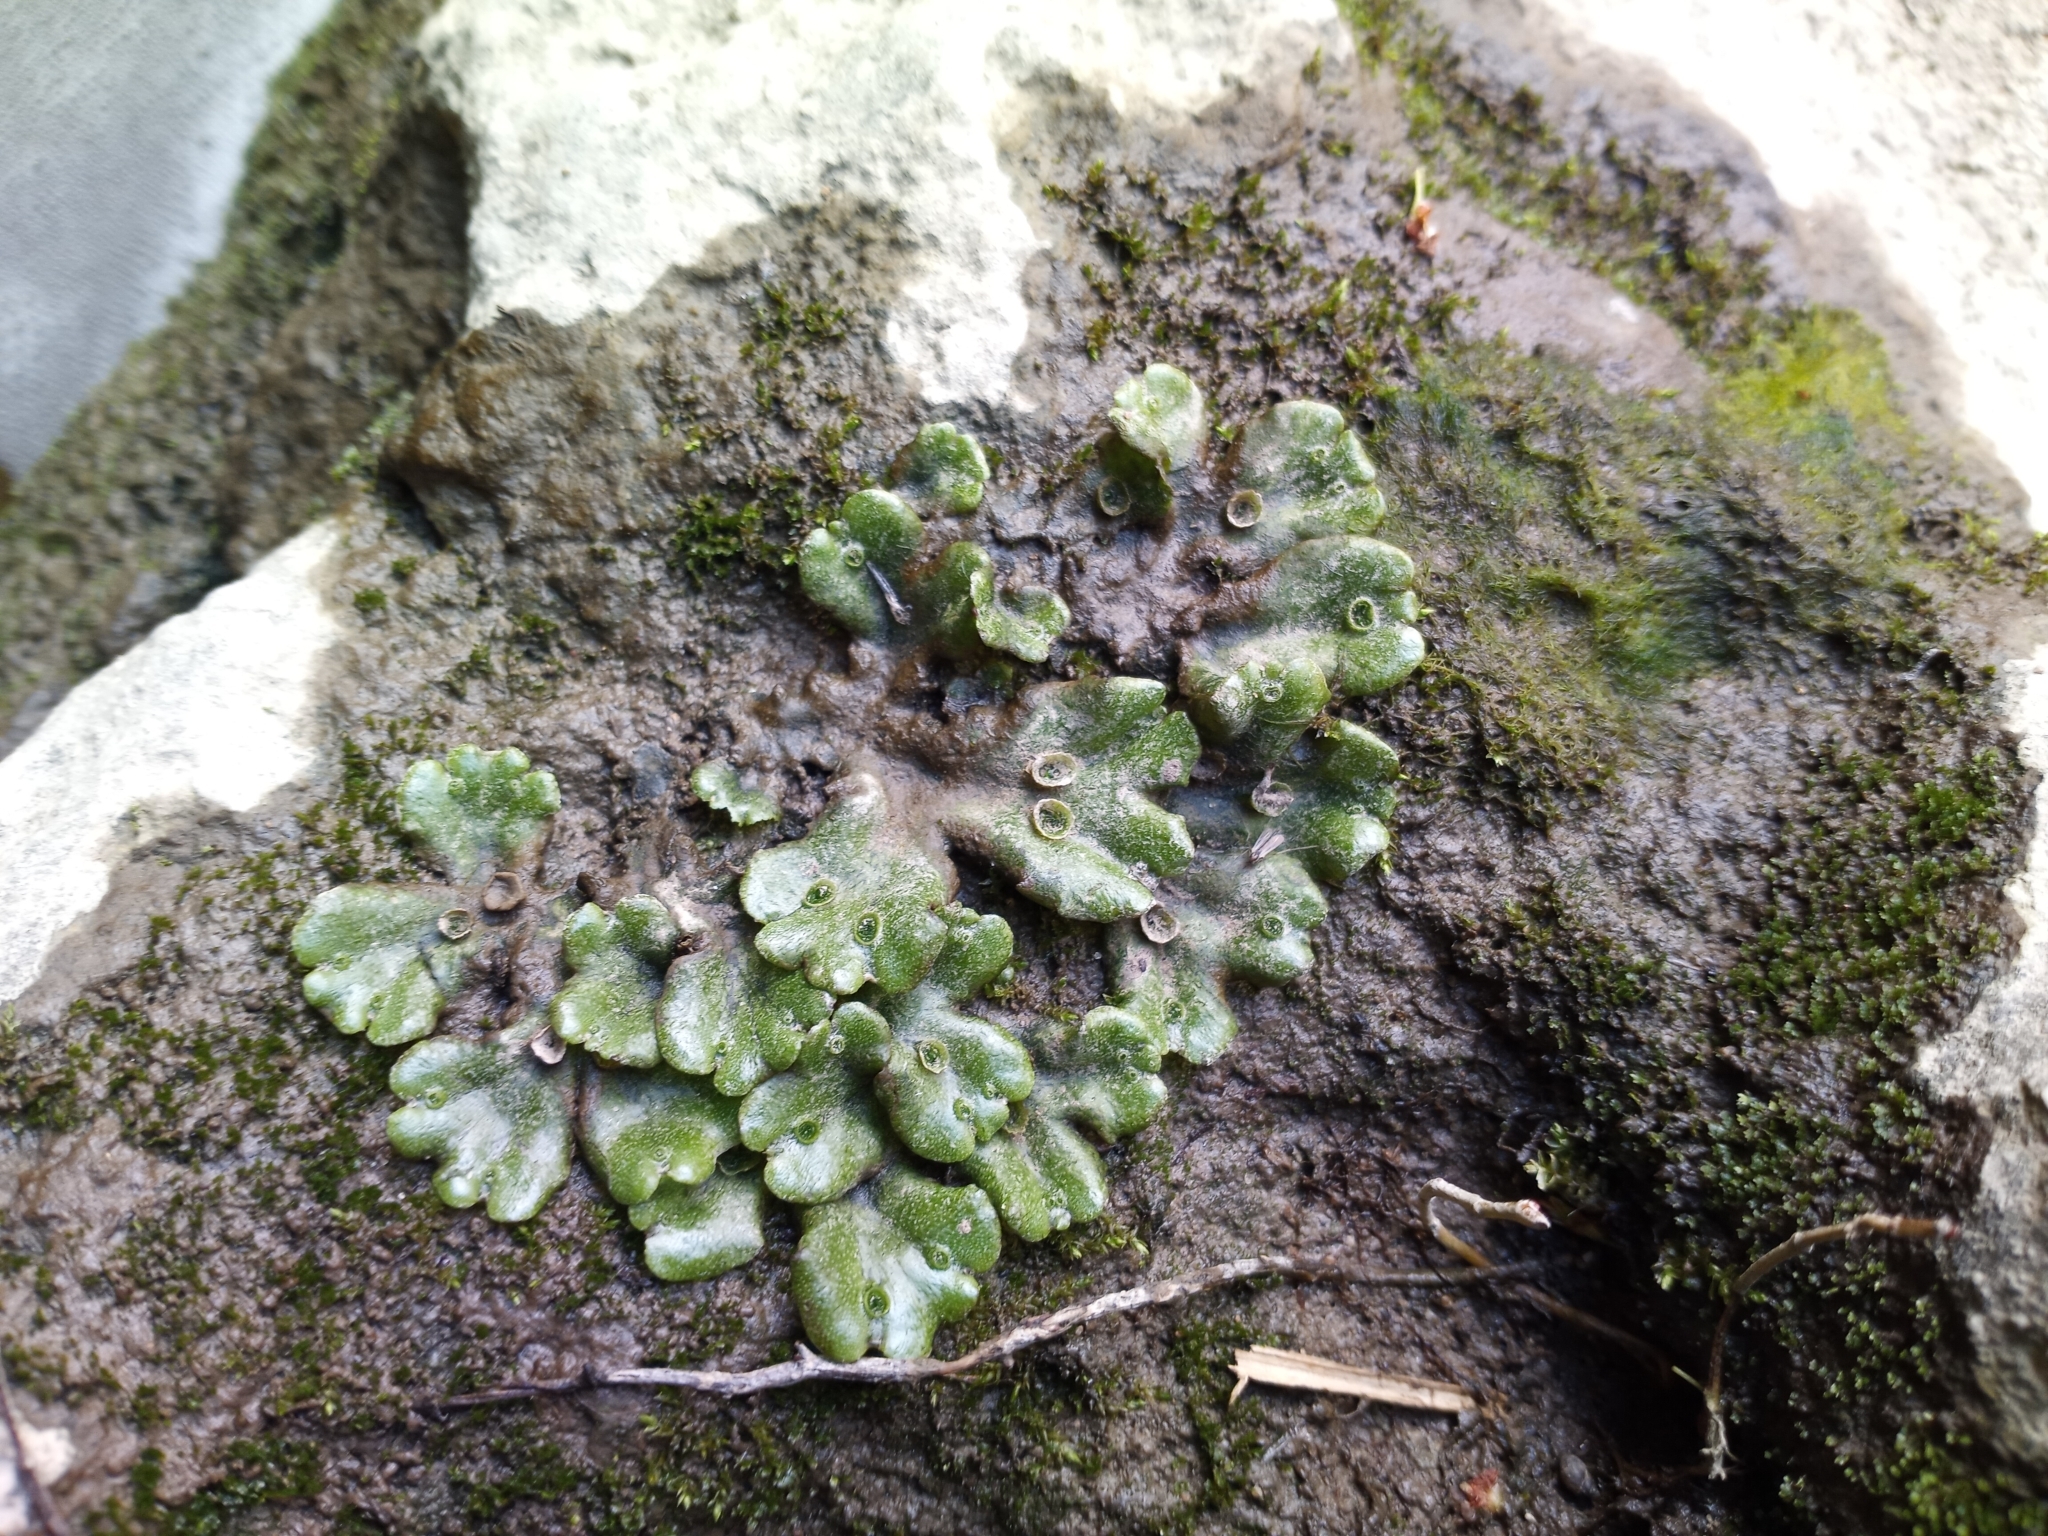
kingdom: Plantae
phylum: Marchantiophyta
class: Marchantiopsida
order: Marchantiales
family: Marchantiaceae
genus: Marchantia
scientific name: Marchantia polymorpha
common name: Common liverwort
